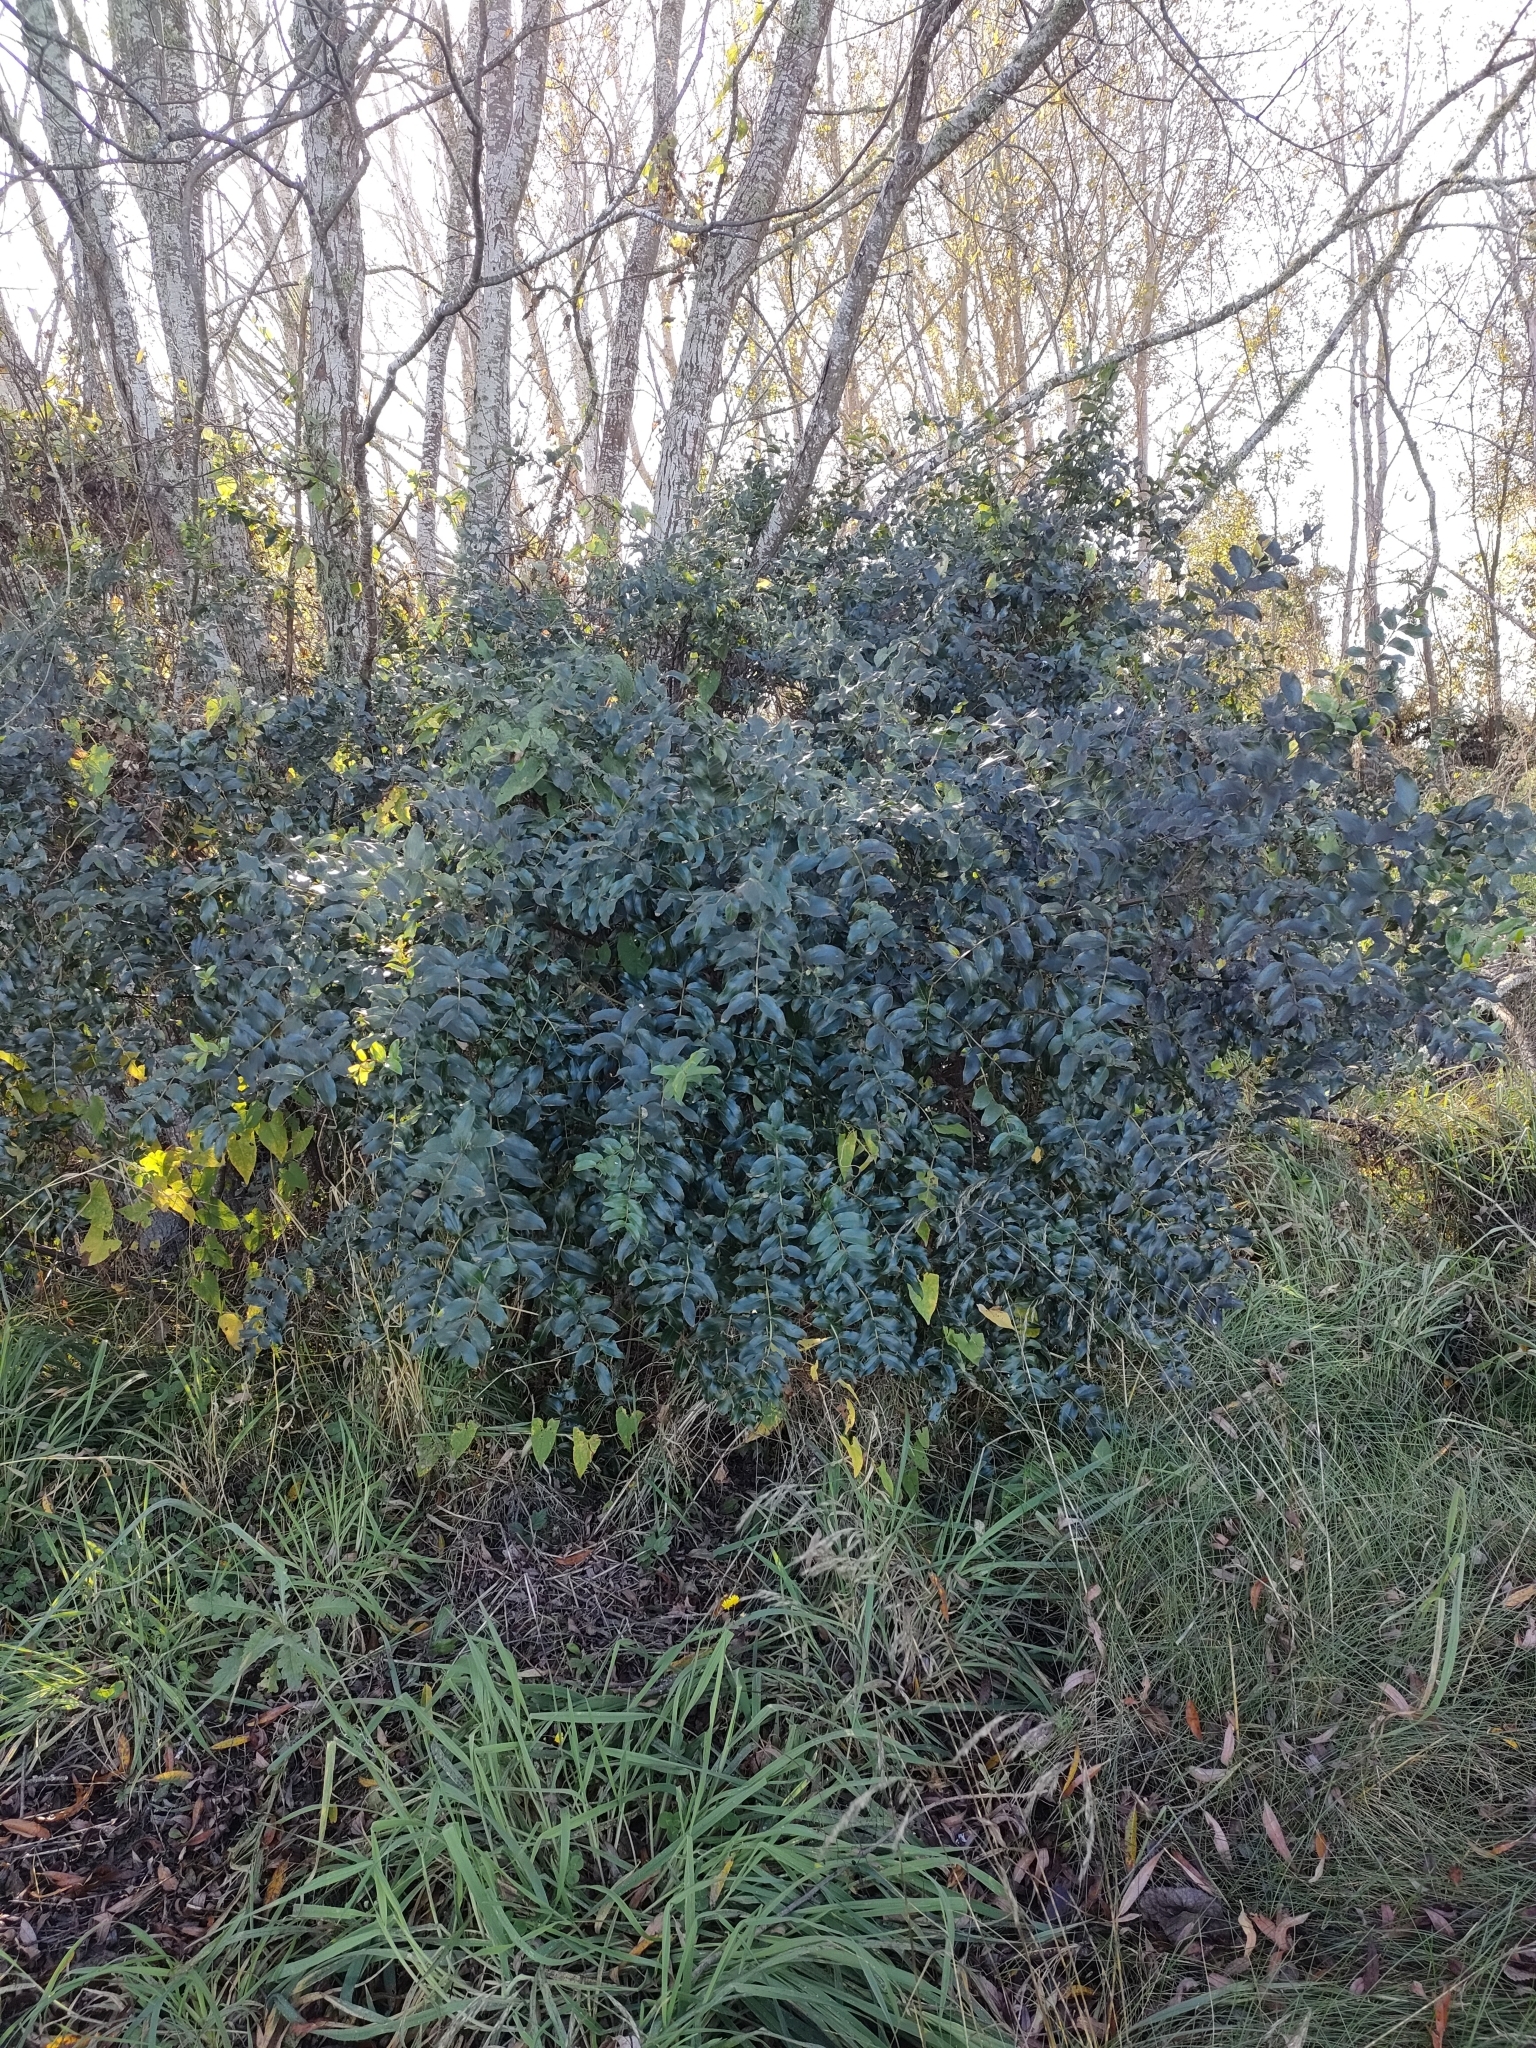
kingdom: Plantae
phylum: Tracheophyta
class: Magnoliopsida
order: Cucurbitales
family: Coriariaceae
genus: Coriaria
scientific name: Coriaria arborea
